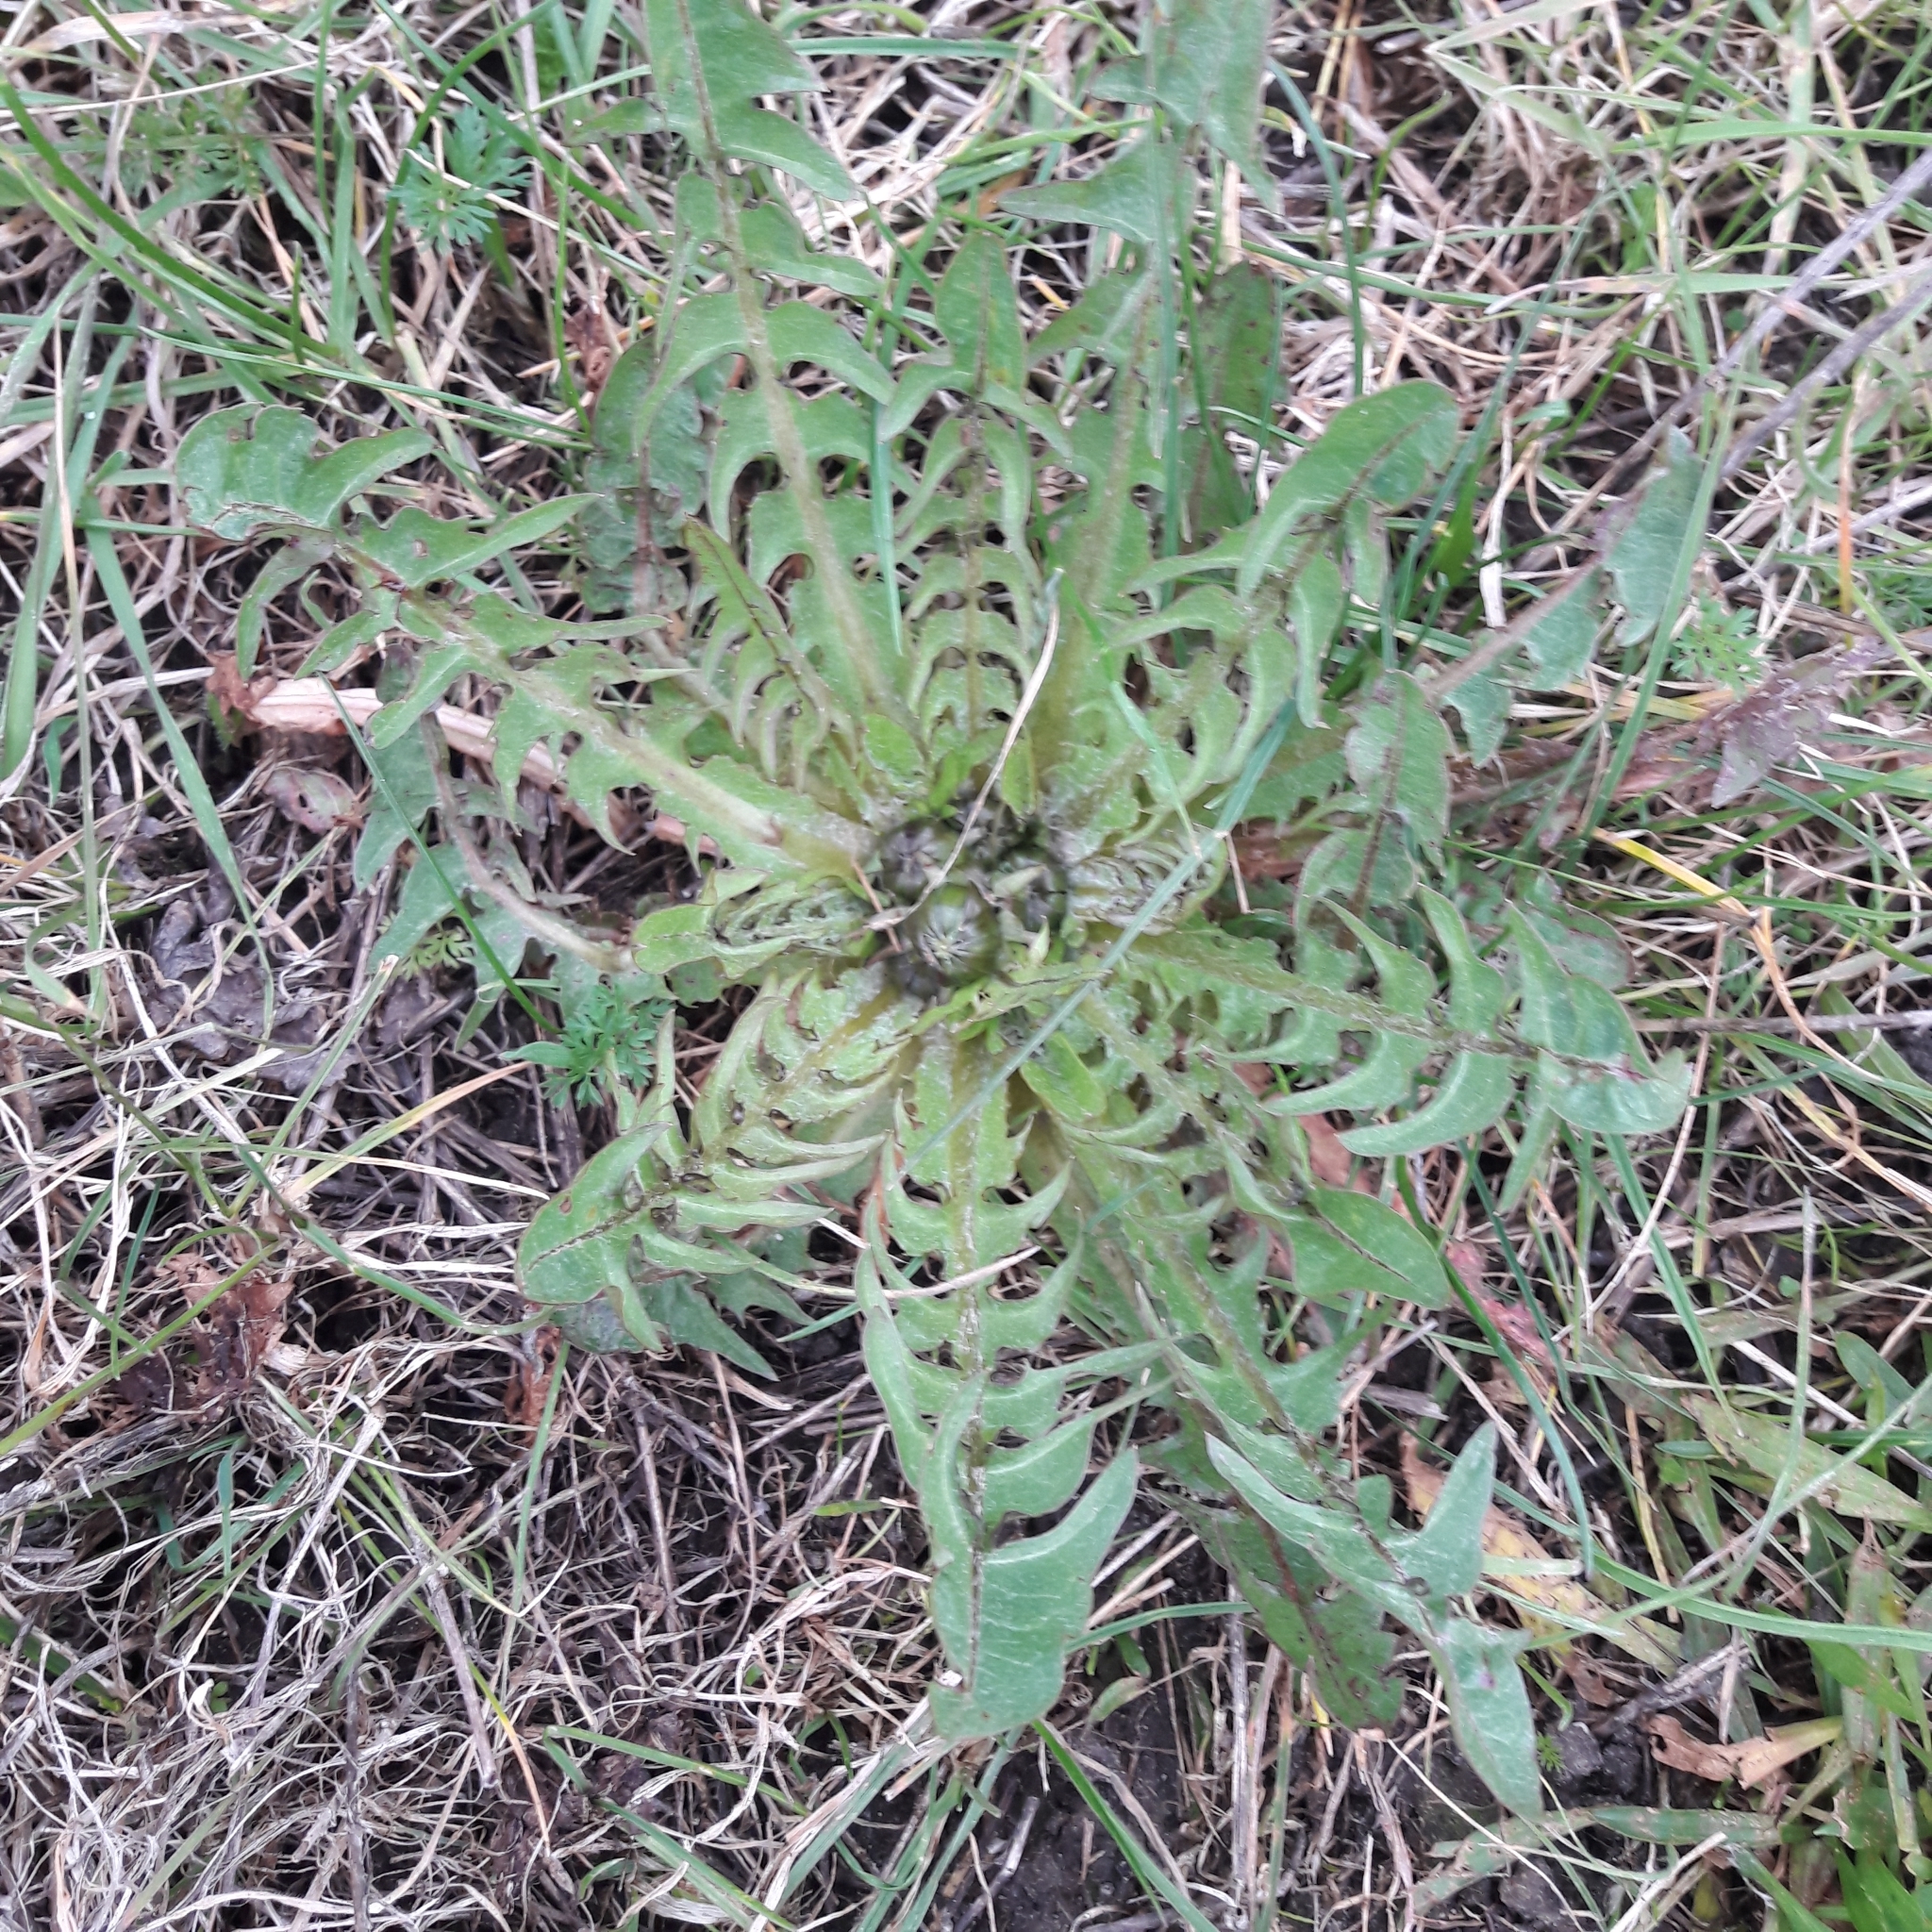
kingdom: Plantae
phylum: Tracheophyta
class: Magnoliopsida
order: Asterales
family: Asteraceae
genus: Taraxacum
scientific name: Taraxacum officinale
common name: Common dandelion
